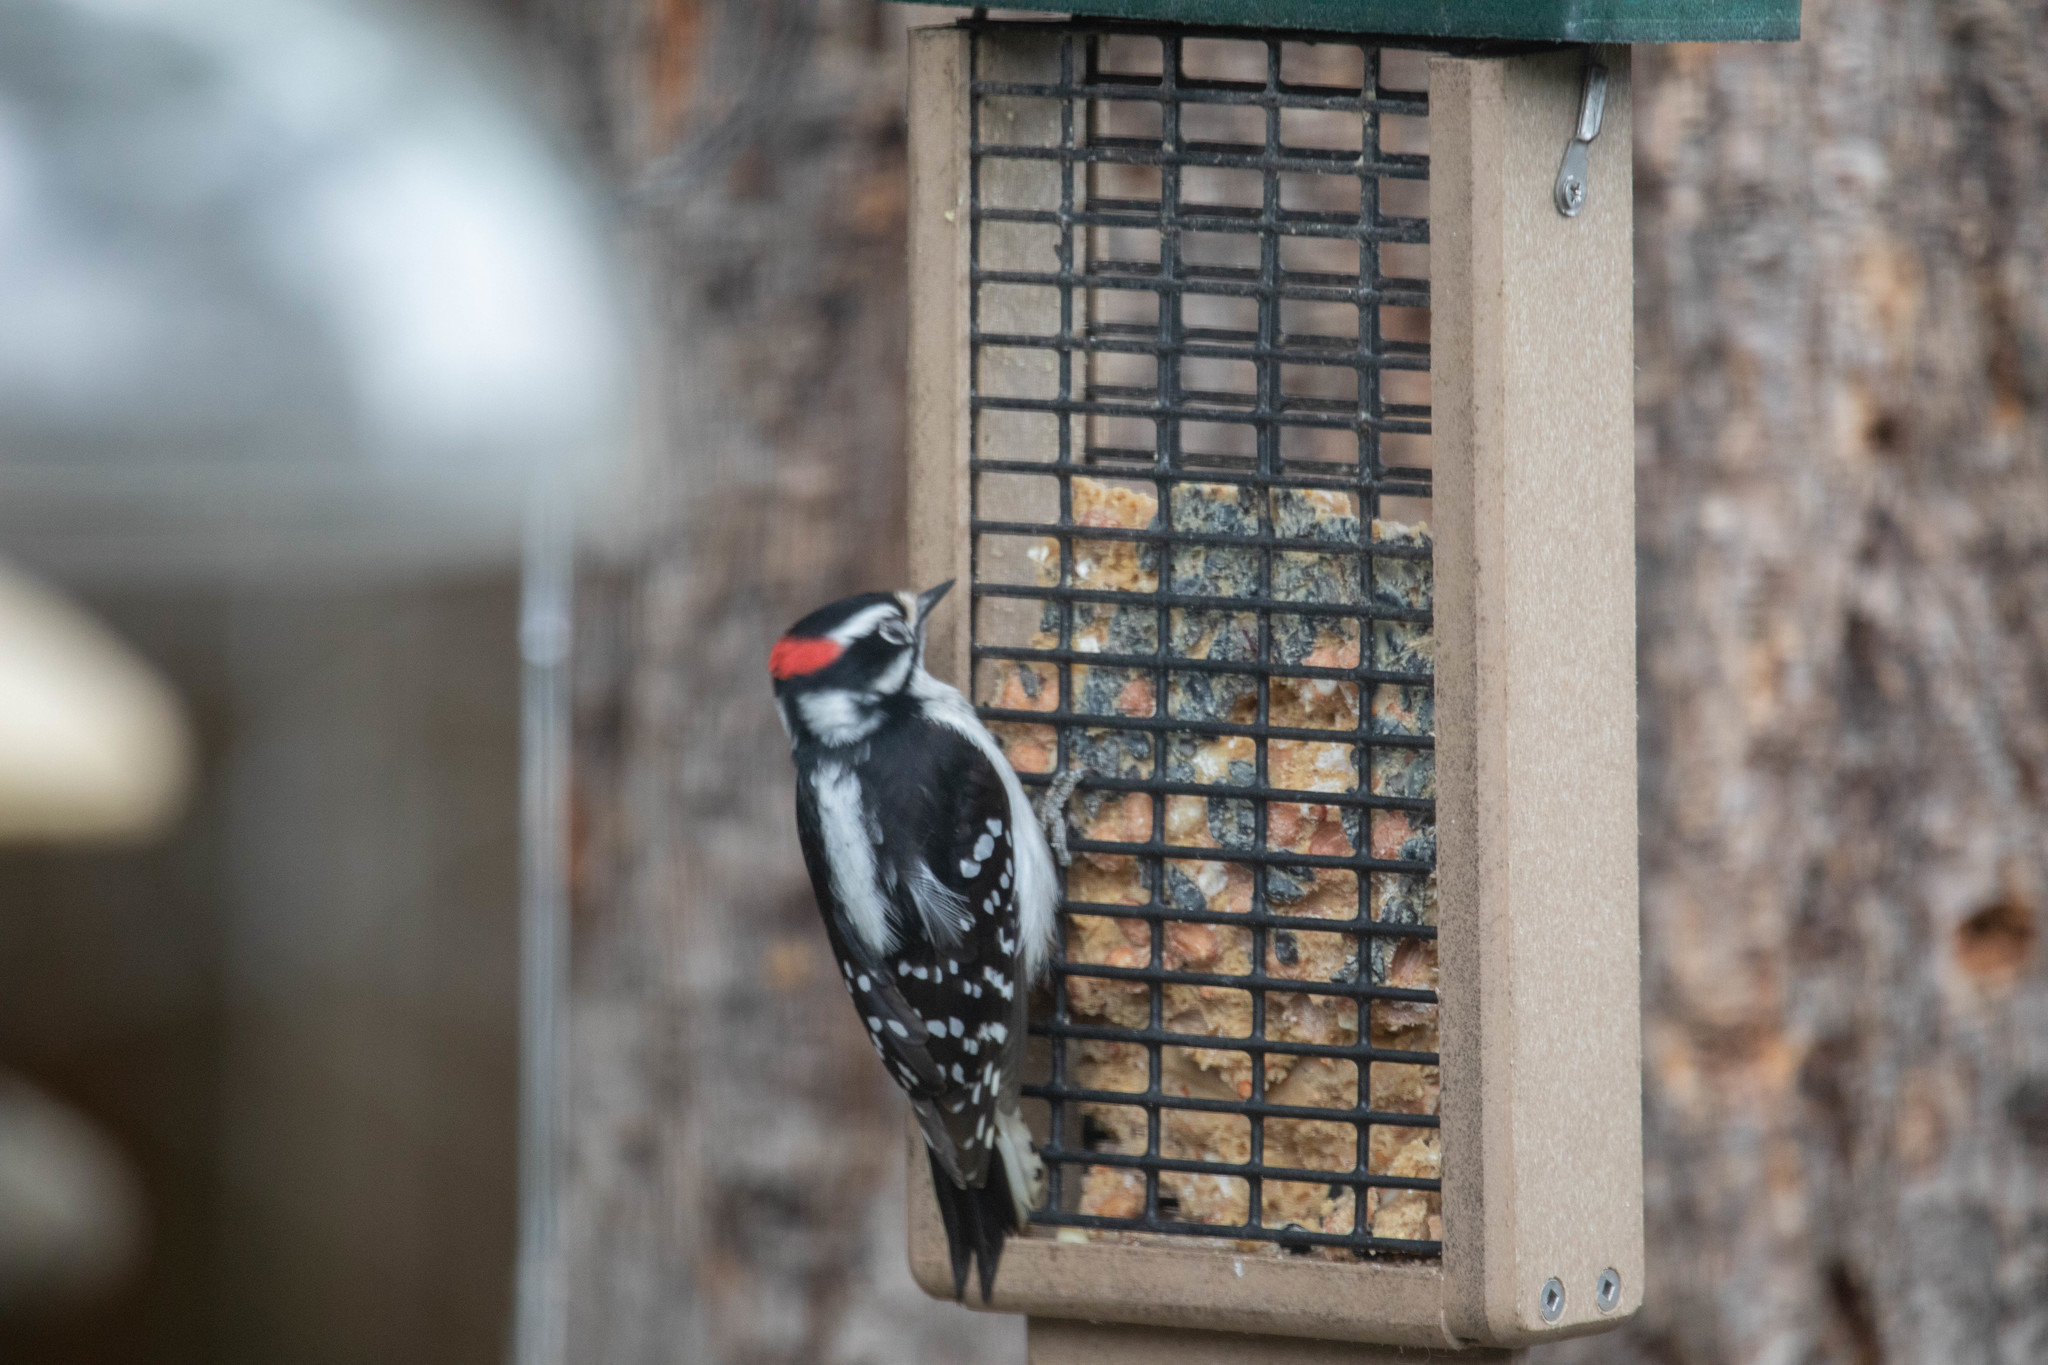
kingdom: Animalia
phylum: Chordata
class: Aves
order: Piciformes
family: Picidae
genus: Dryobates
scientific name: Dryobates pubescens
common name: Downy woodpecker
